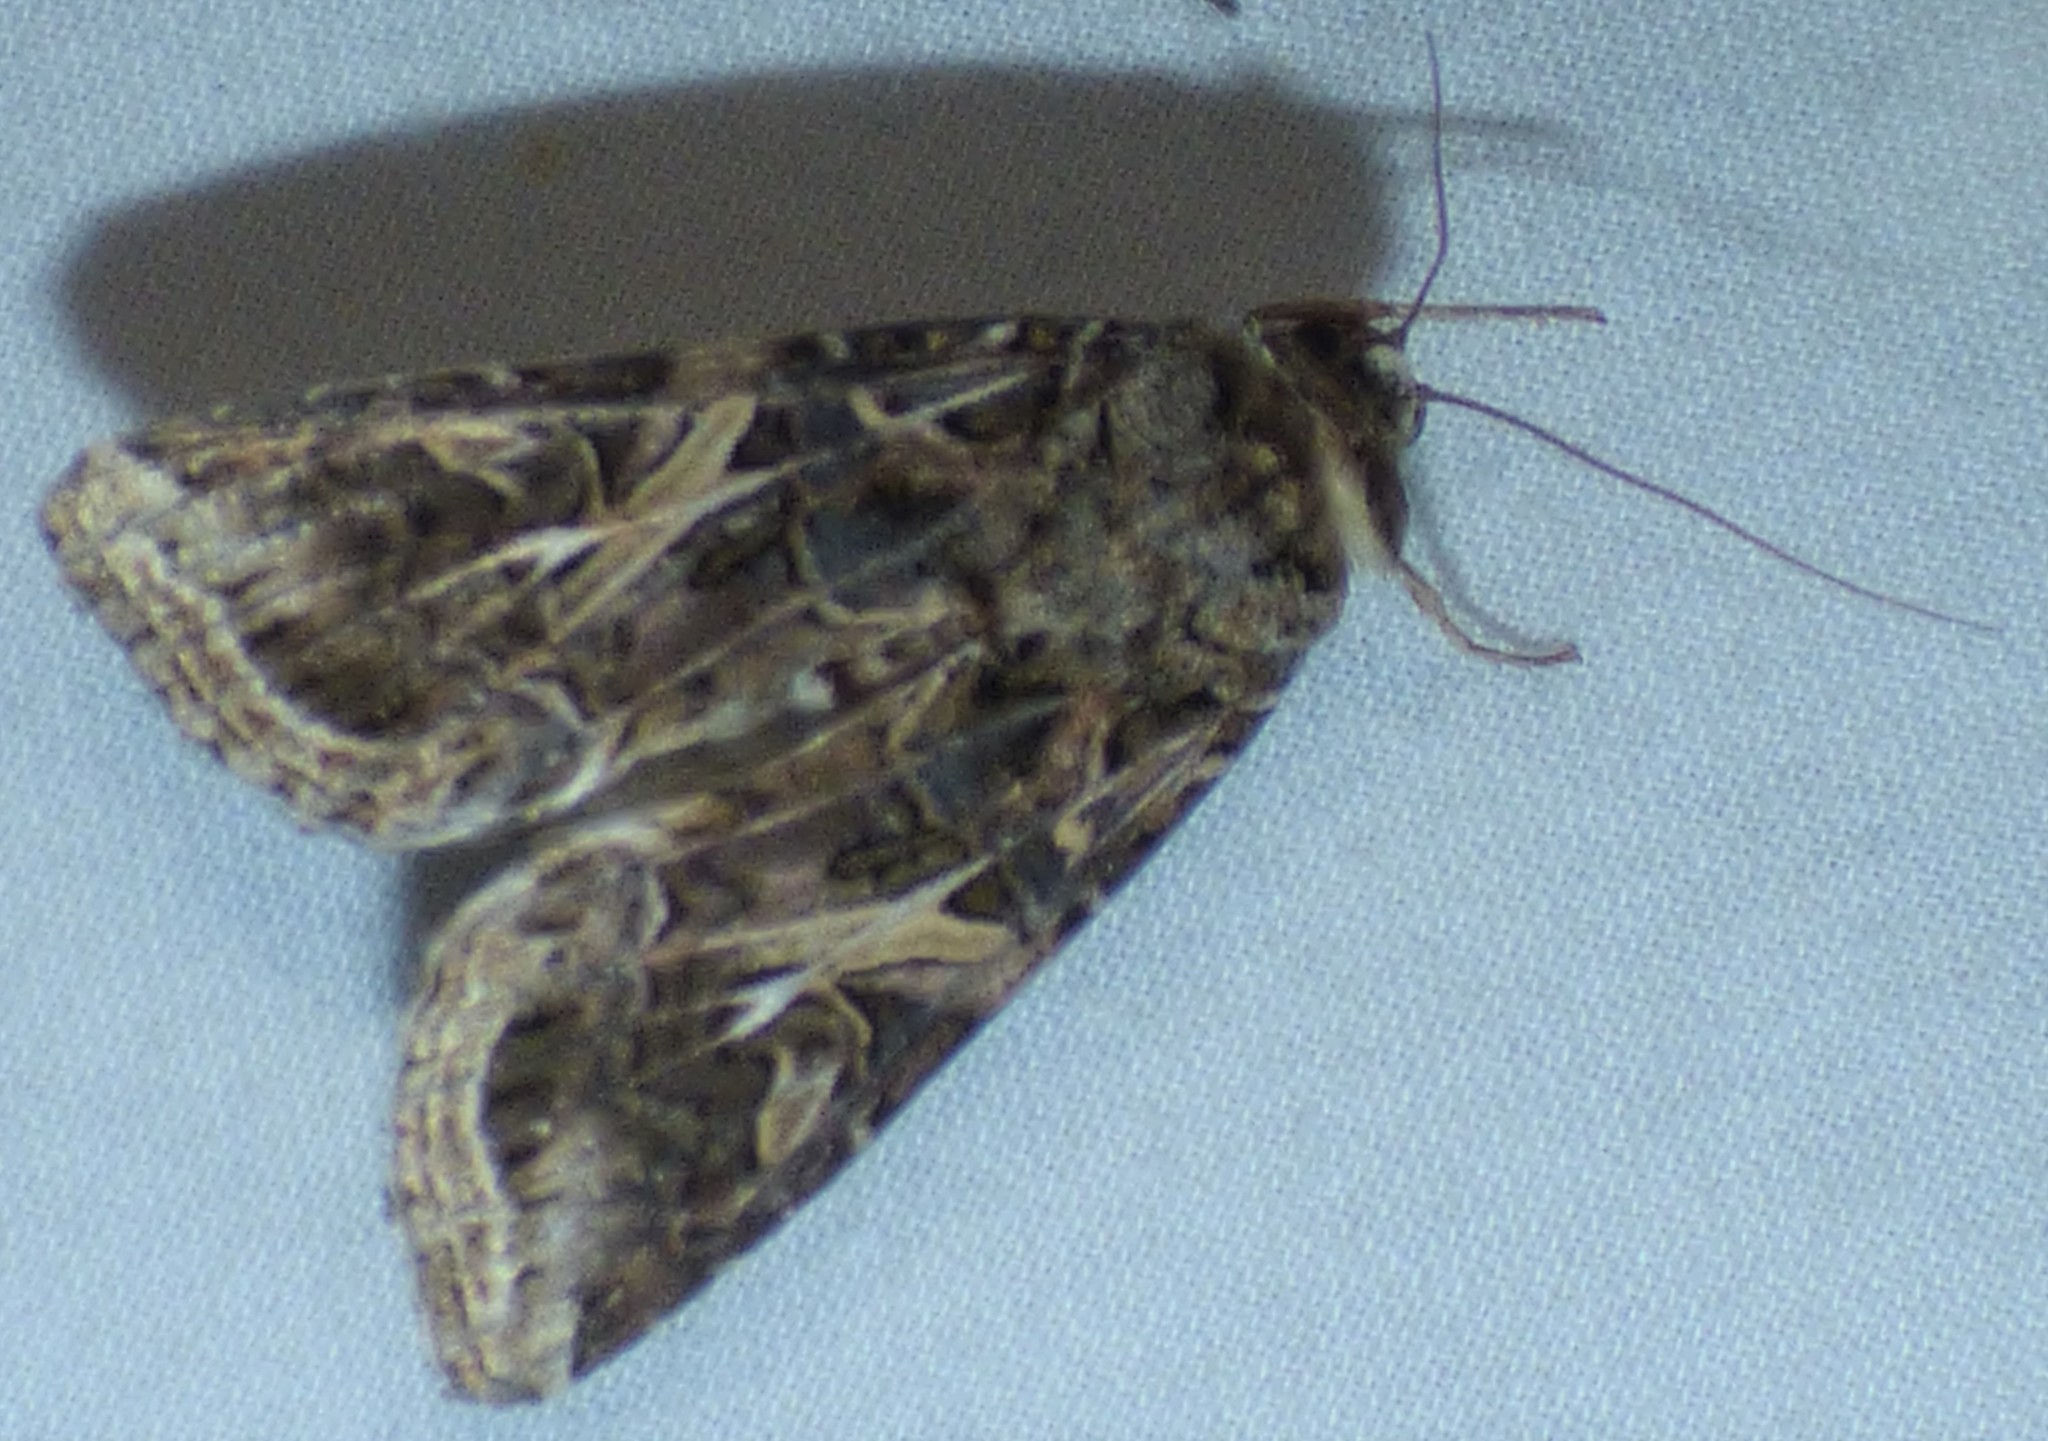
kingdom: Animalia
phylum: Arthropoda
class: Insecta
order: Lepidoptera
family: Noctuidae
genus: Spodoptera
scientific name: Spodoptera ornithogalli
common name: Yellow-striped armyworm
